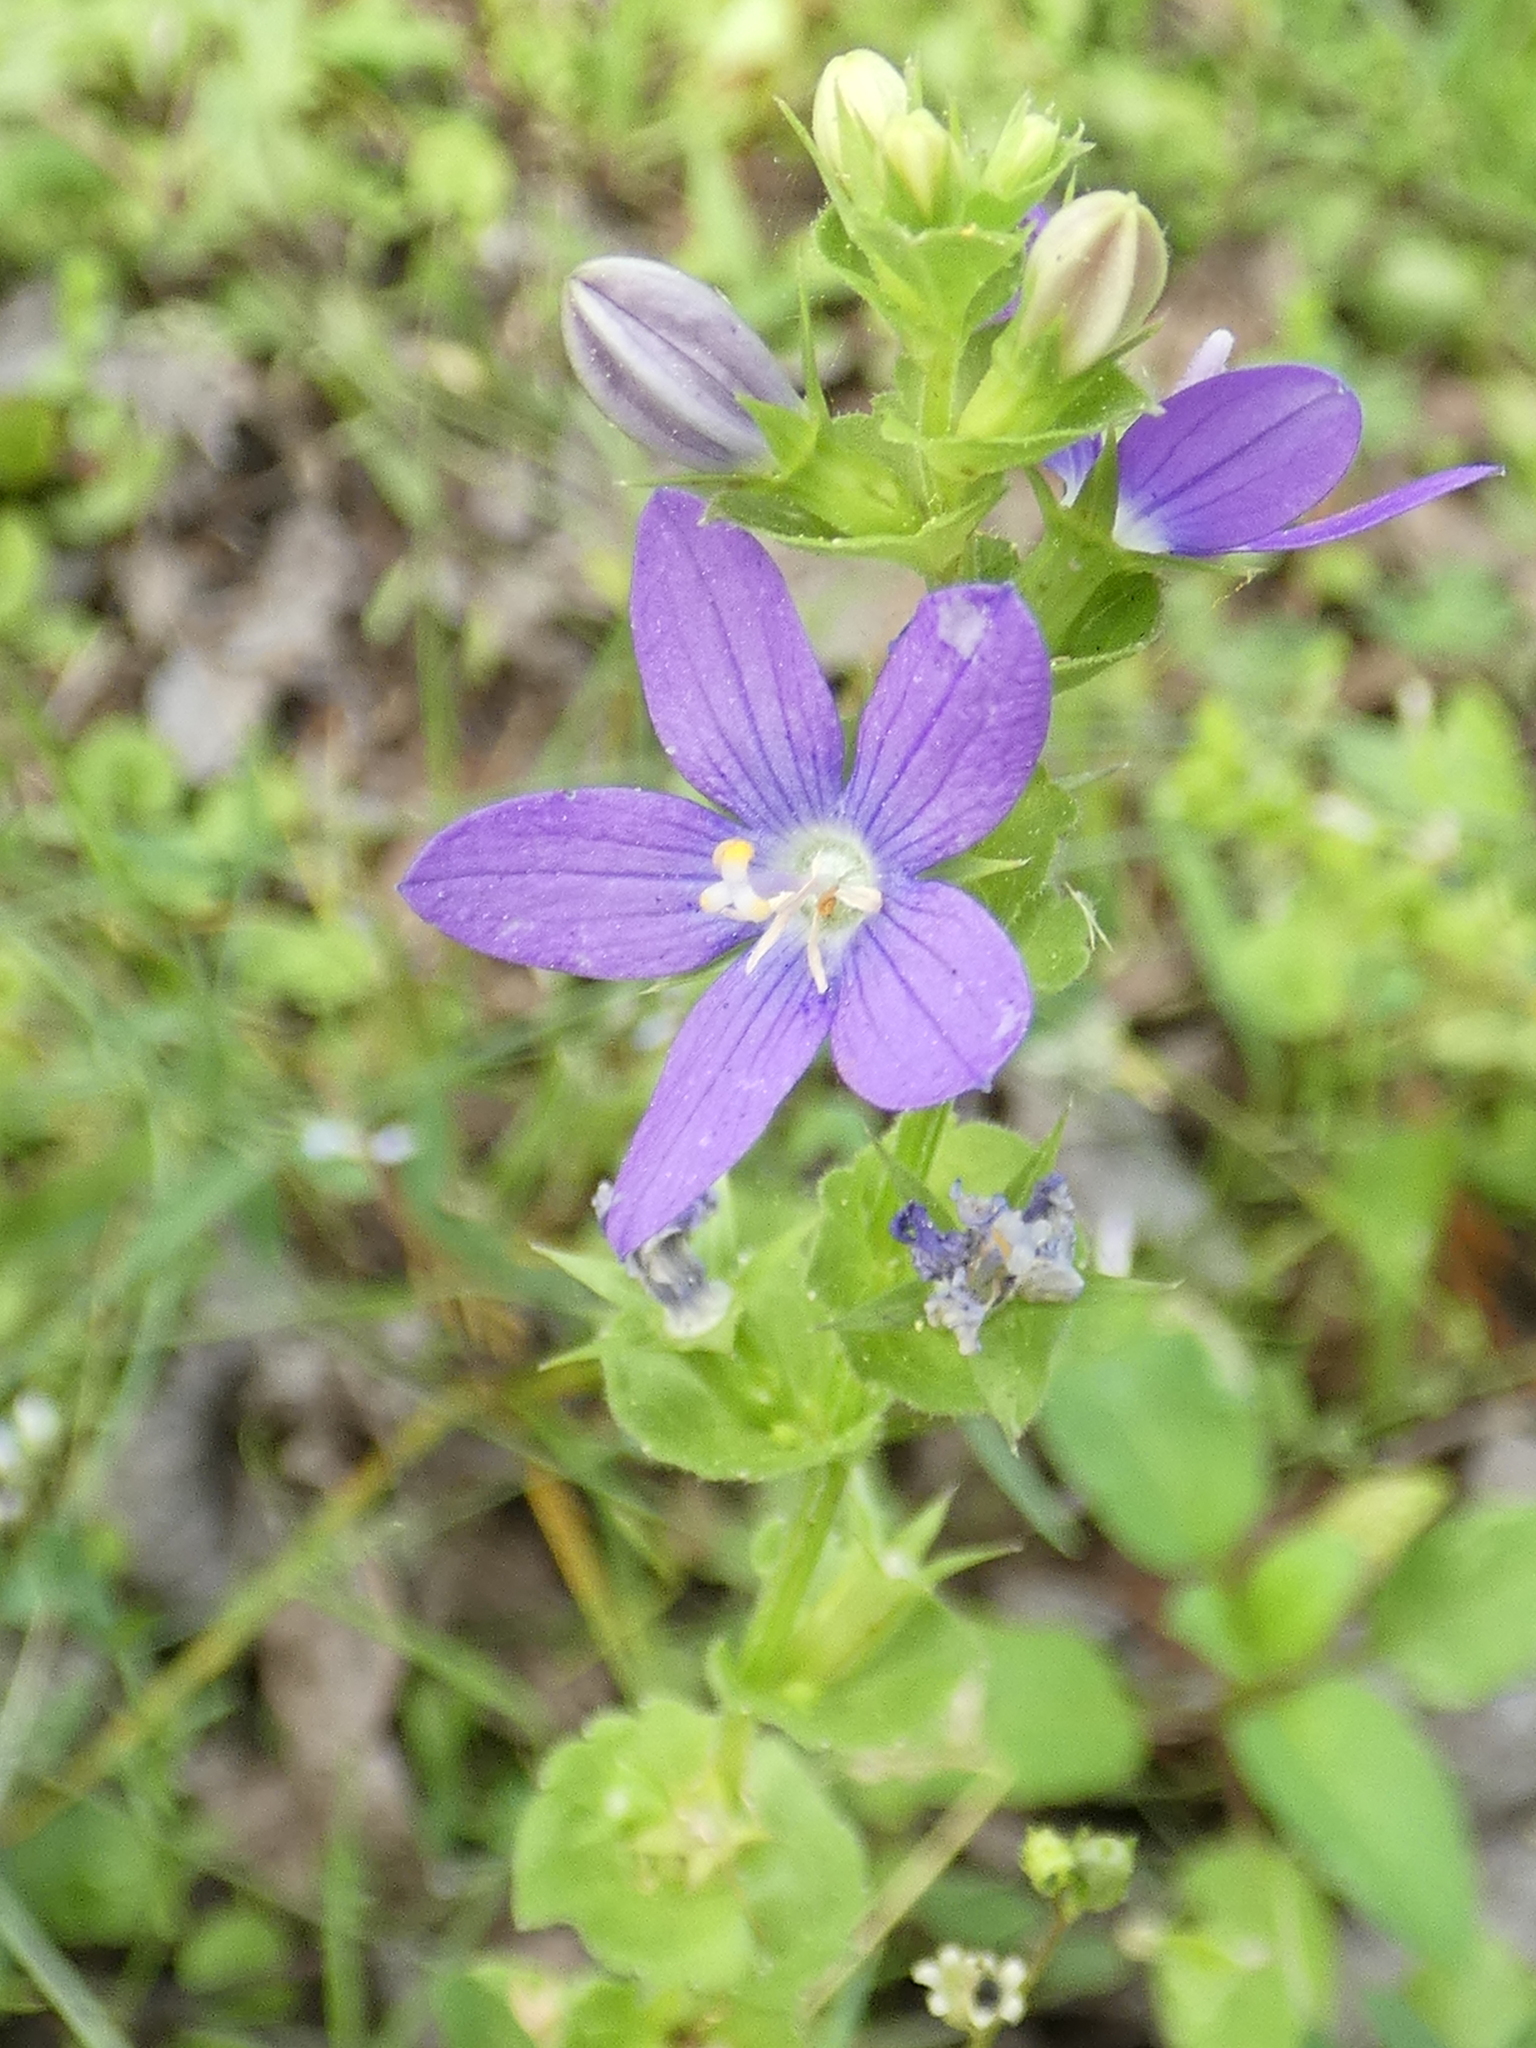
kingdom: Plantae
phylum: Tracheophyta
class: Magnoliopsida
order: Asterales
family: Campanulaceae
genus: Triodanis
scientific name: Triodanis perfoliata
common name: Clasping venus' looking-glass
